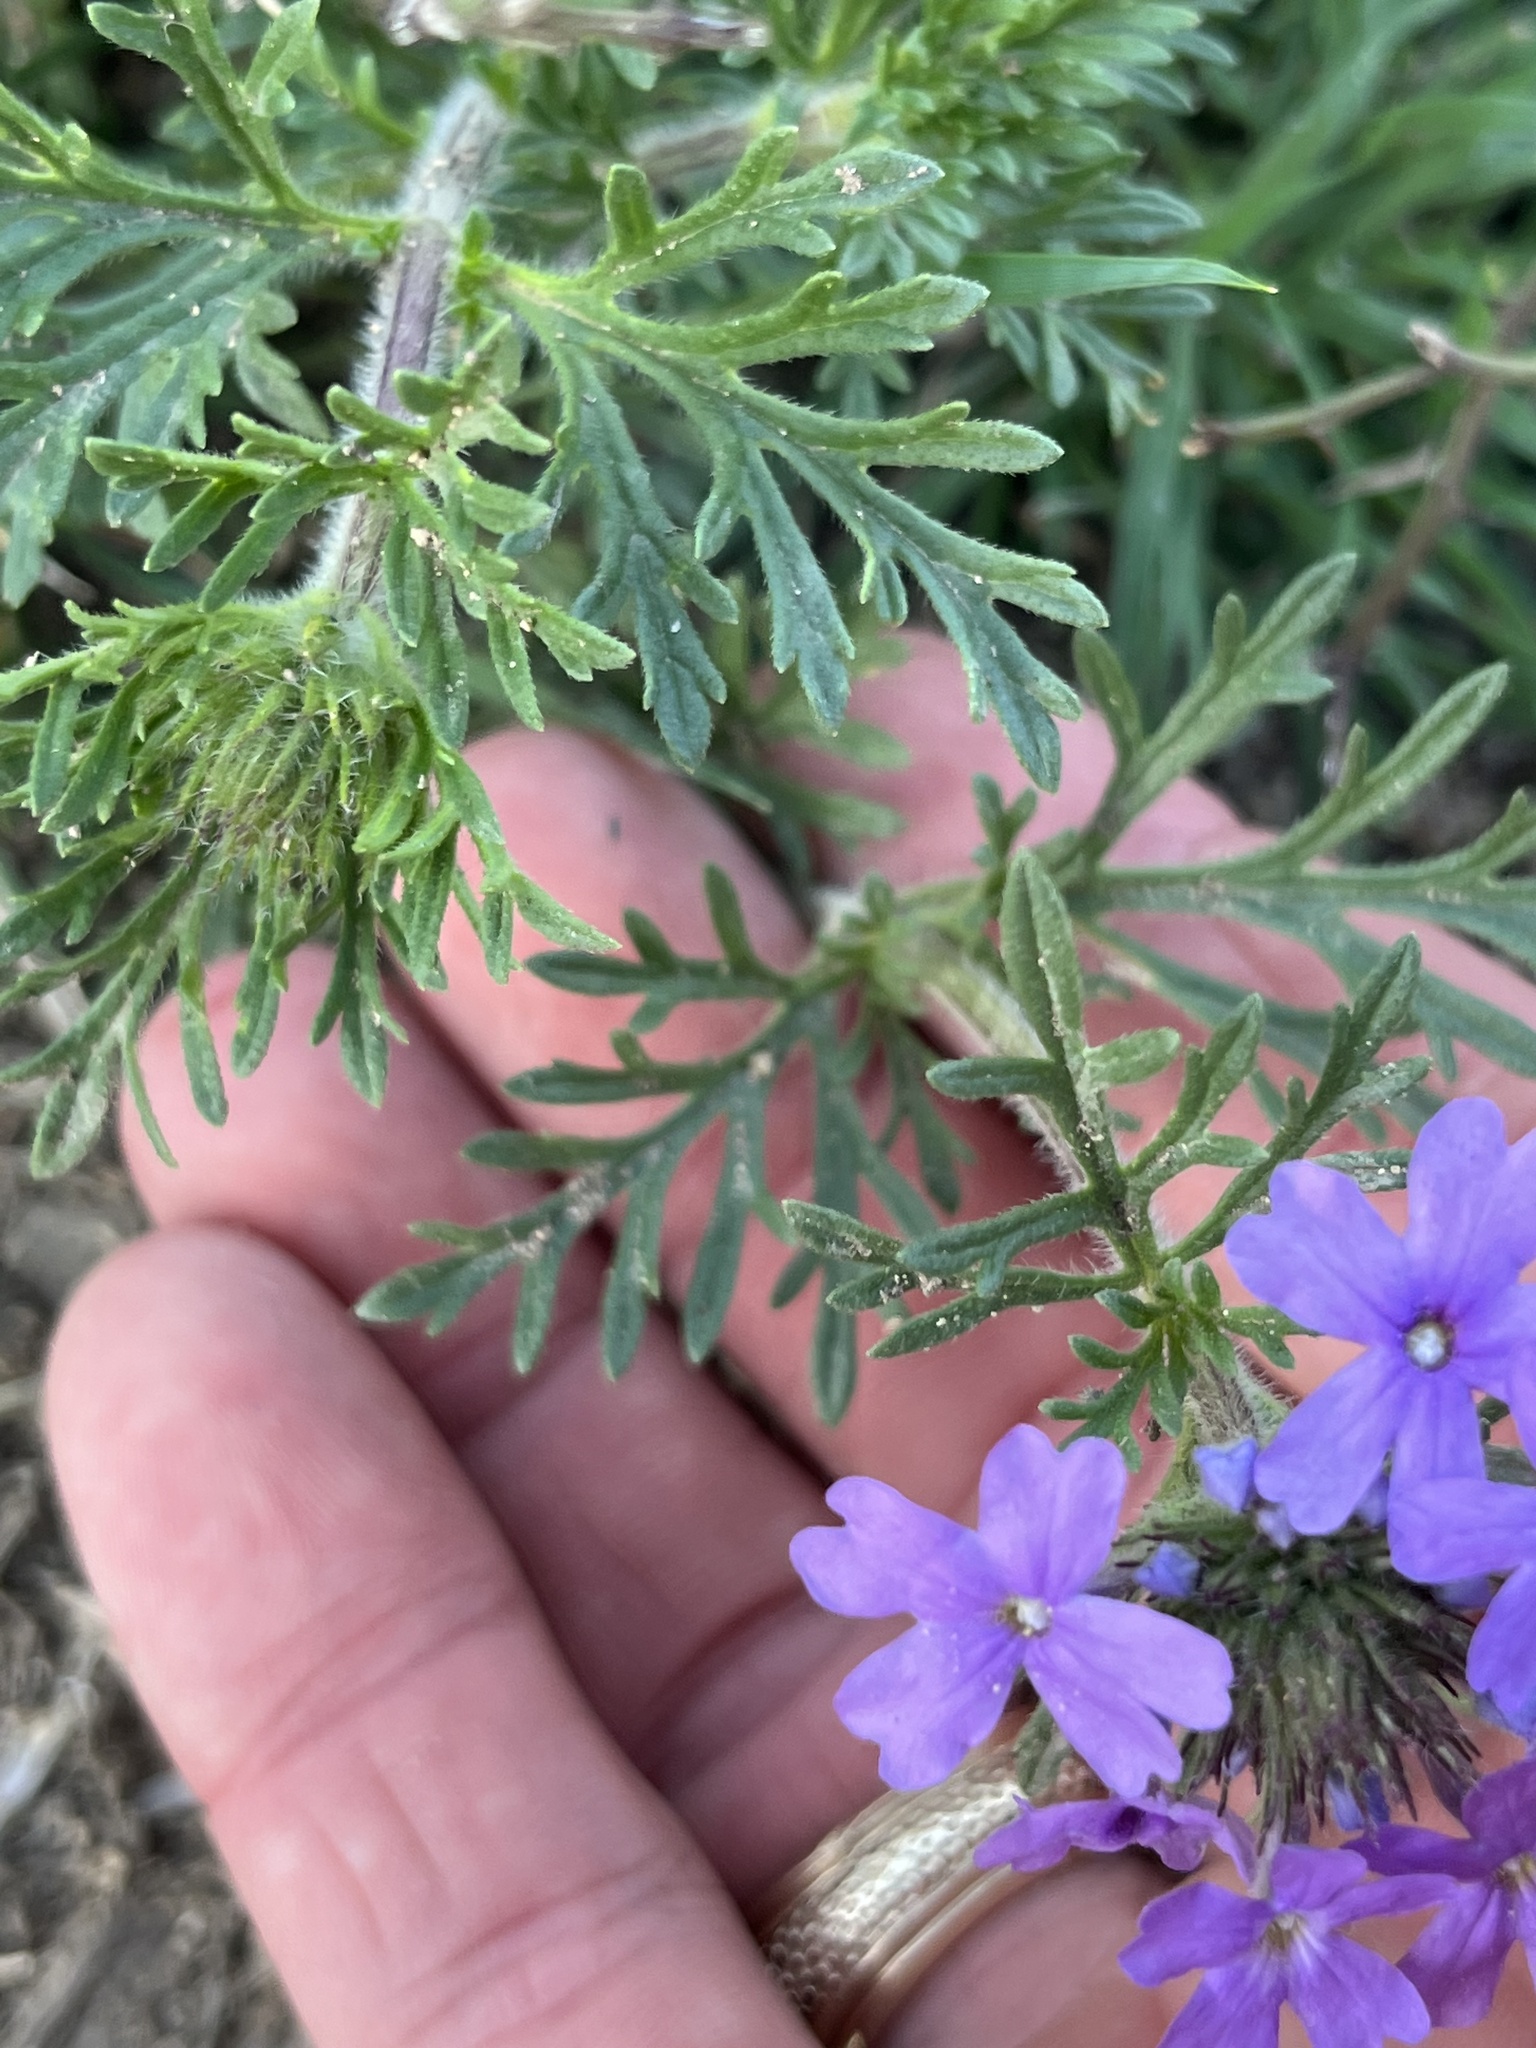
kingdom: Plantae
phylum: Tracheophyta
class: Magnoliopsida
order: Lamiales
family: Verbenaceae
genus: Verbena
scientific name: Verbena bipinnatifida
